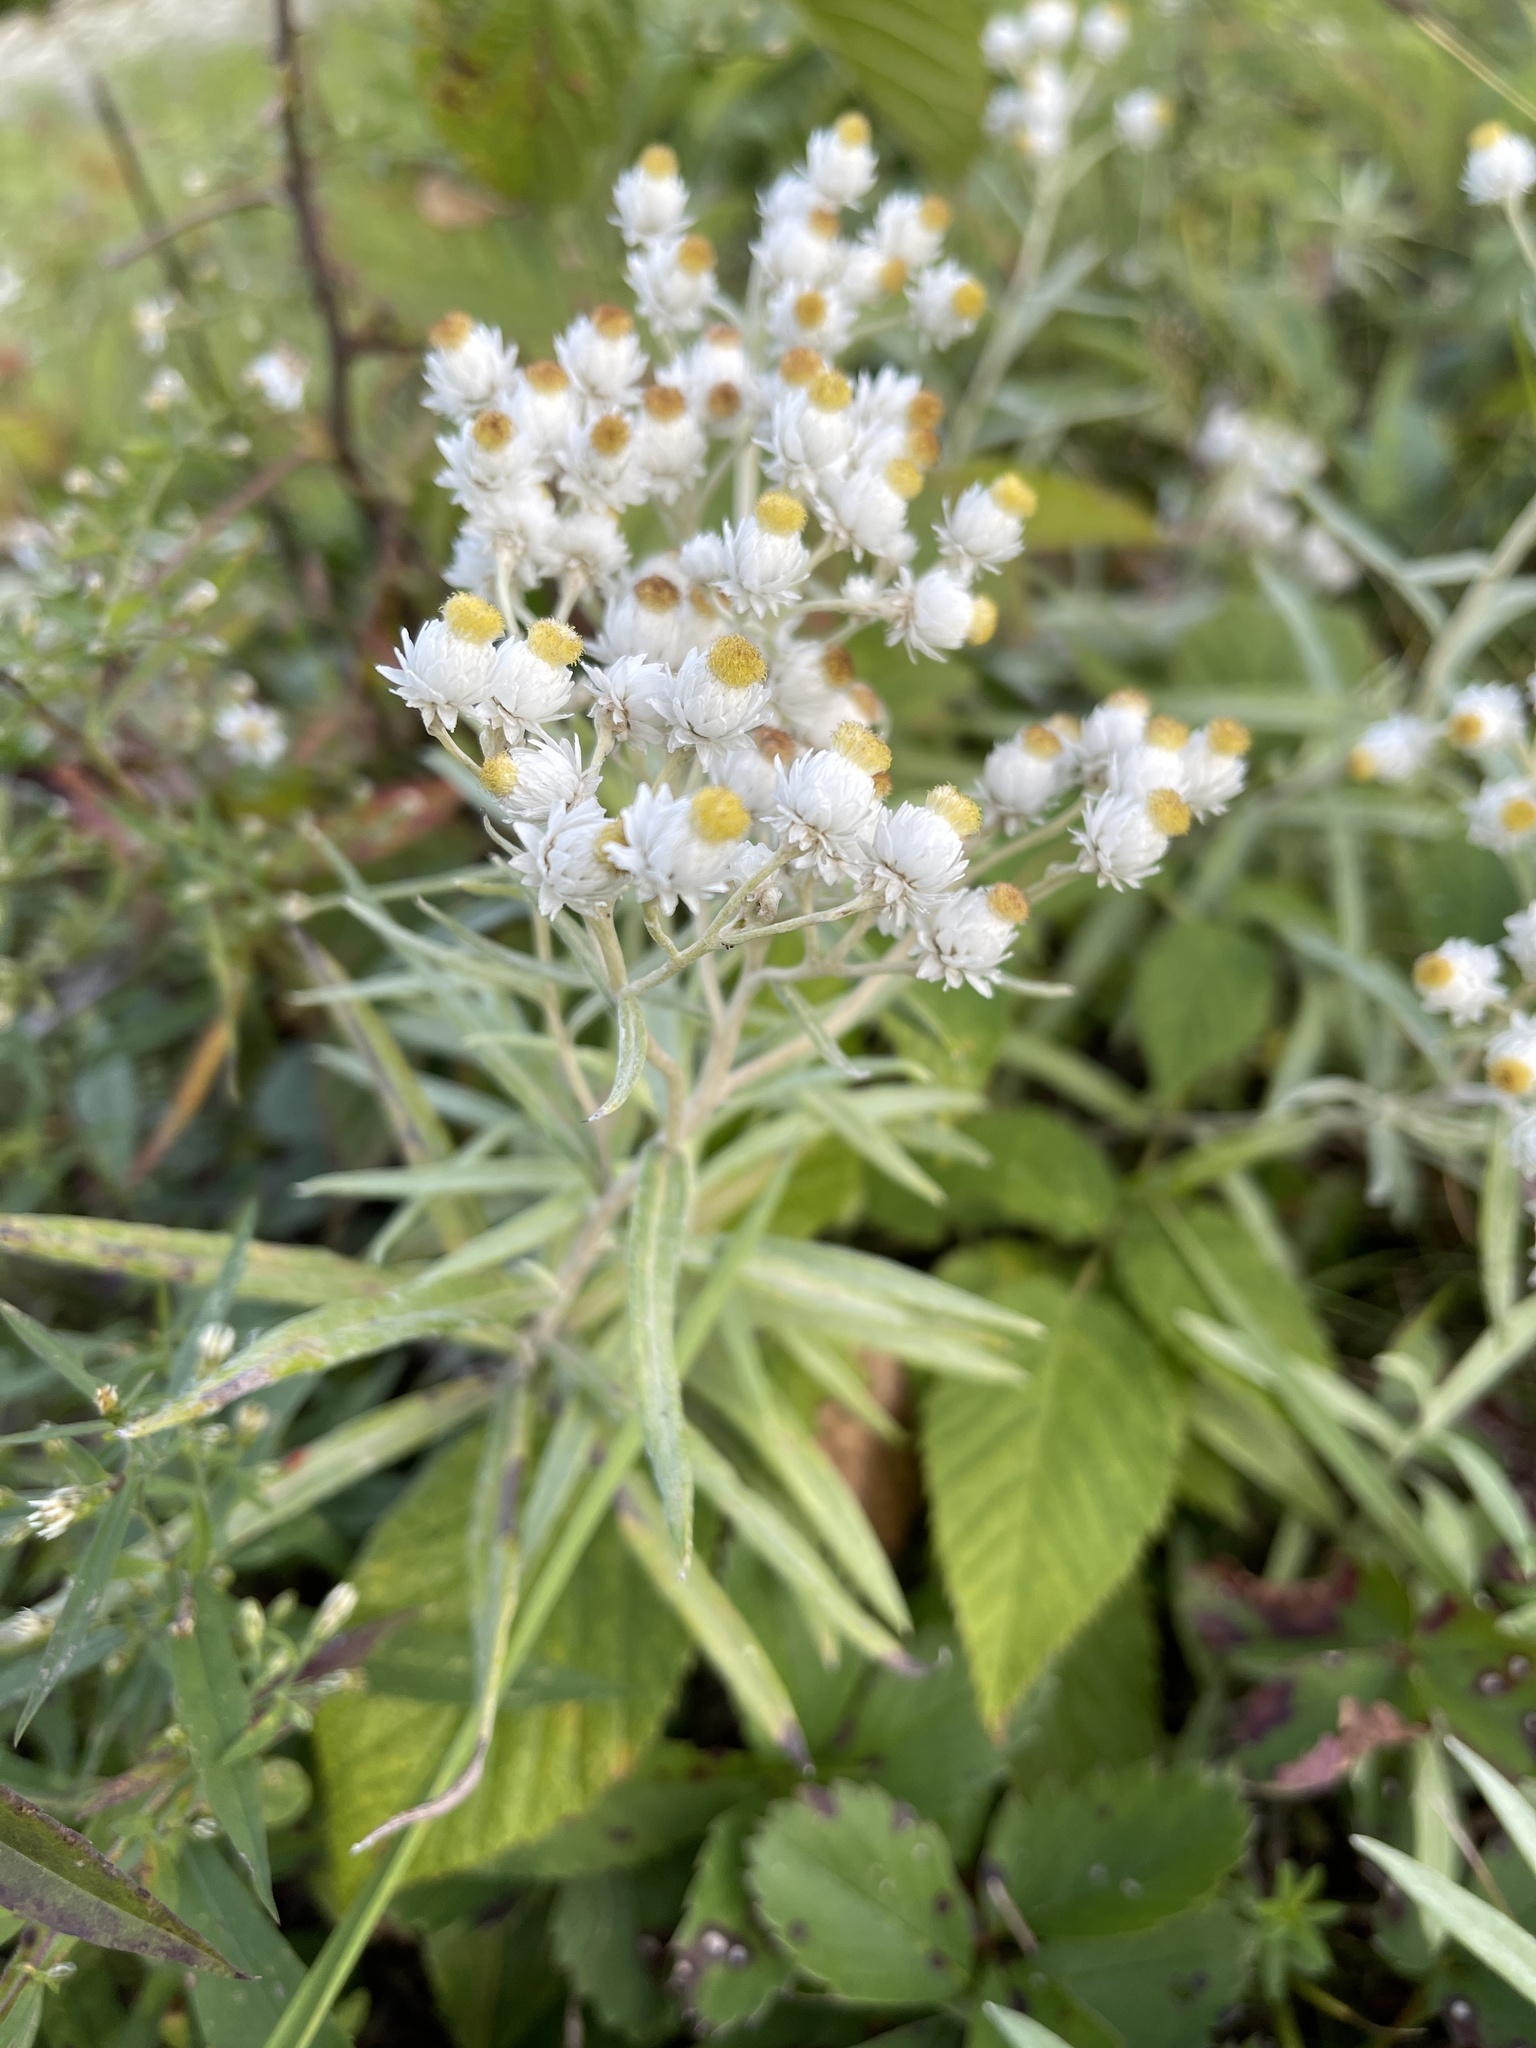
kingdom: Plantae
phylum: Tracheophyta
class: Magnoliopsida
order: Asterales
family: Asteraceae
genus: Anaphalis
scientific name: Anaphalis margaritacea
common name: Pearly everlasting
